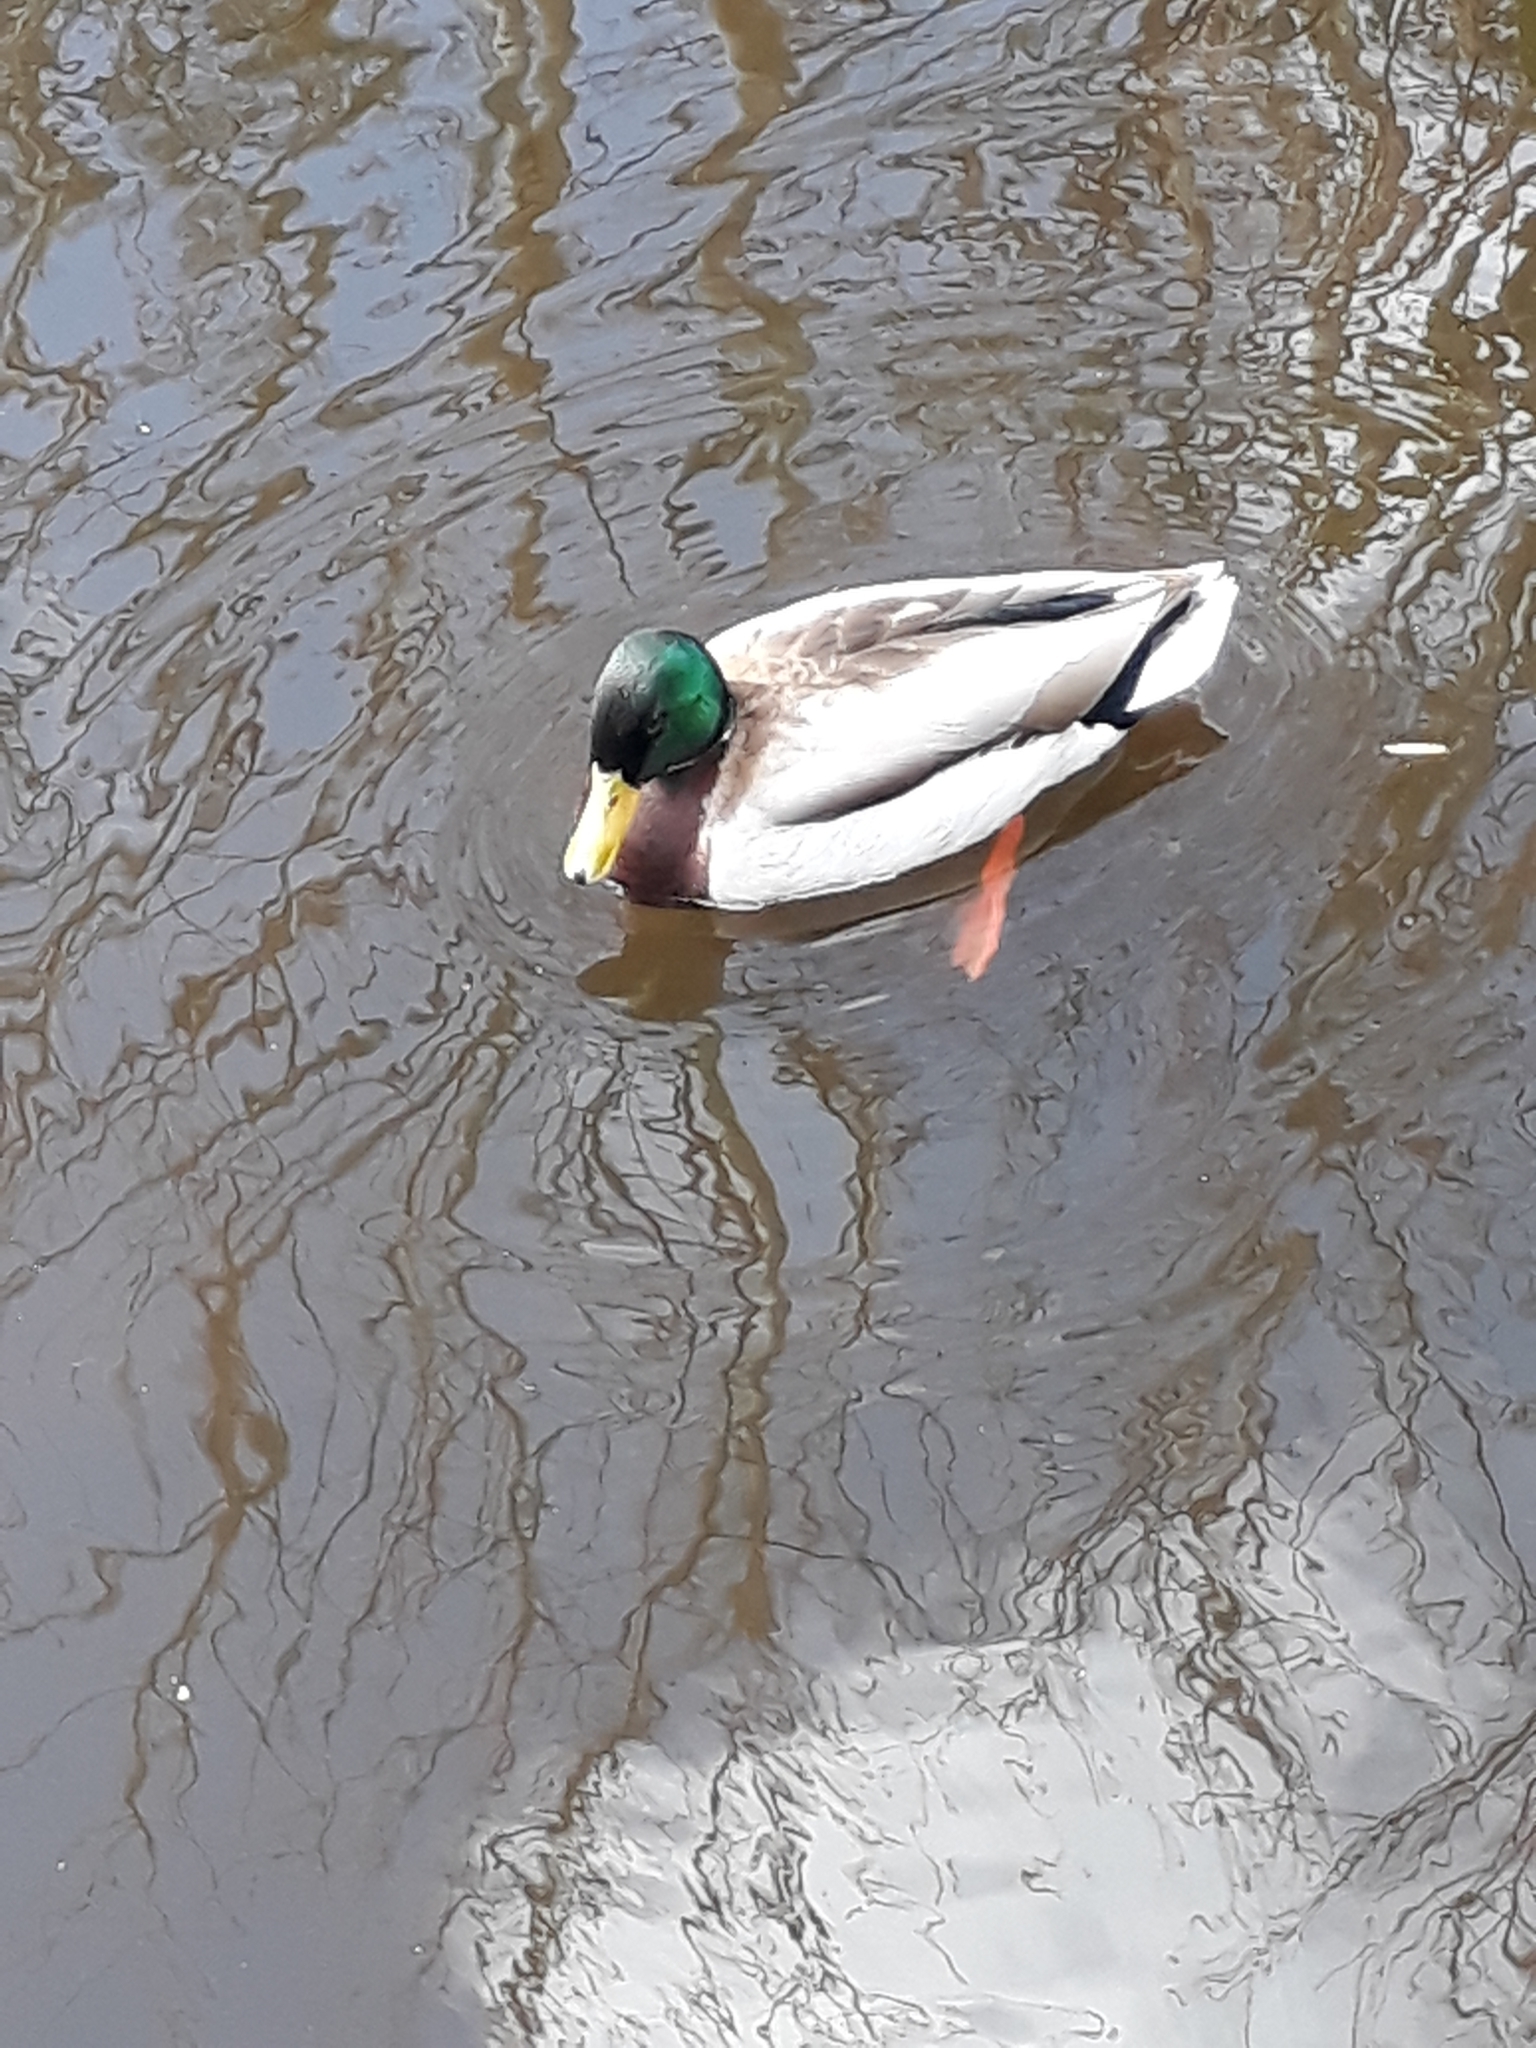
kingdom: Animalia
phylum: Chordata
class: Aves
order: Anseriformes
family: Anatidae
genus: Anas
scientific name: Anas platyrhynchos
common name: Mallard
